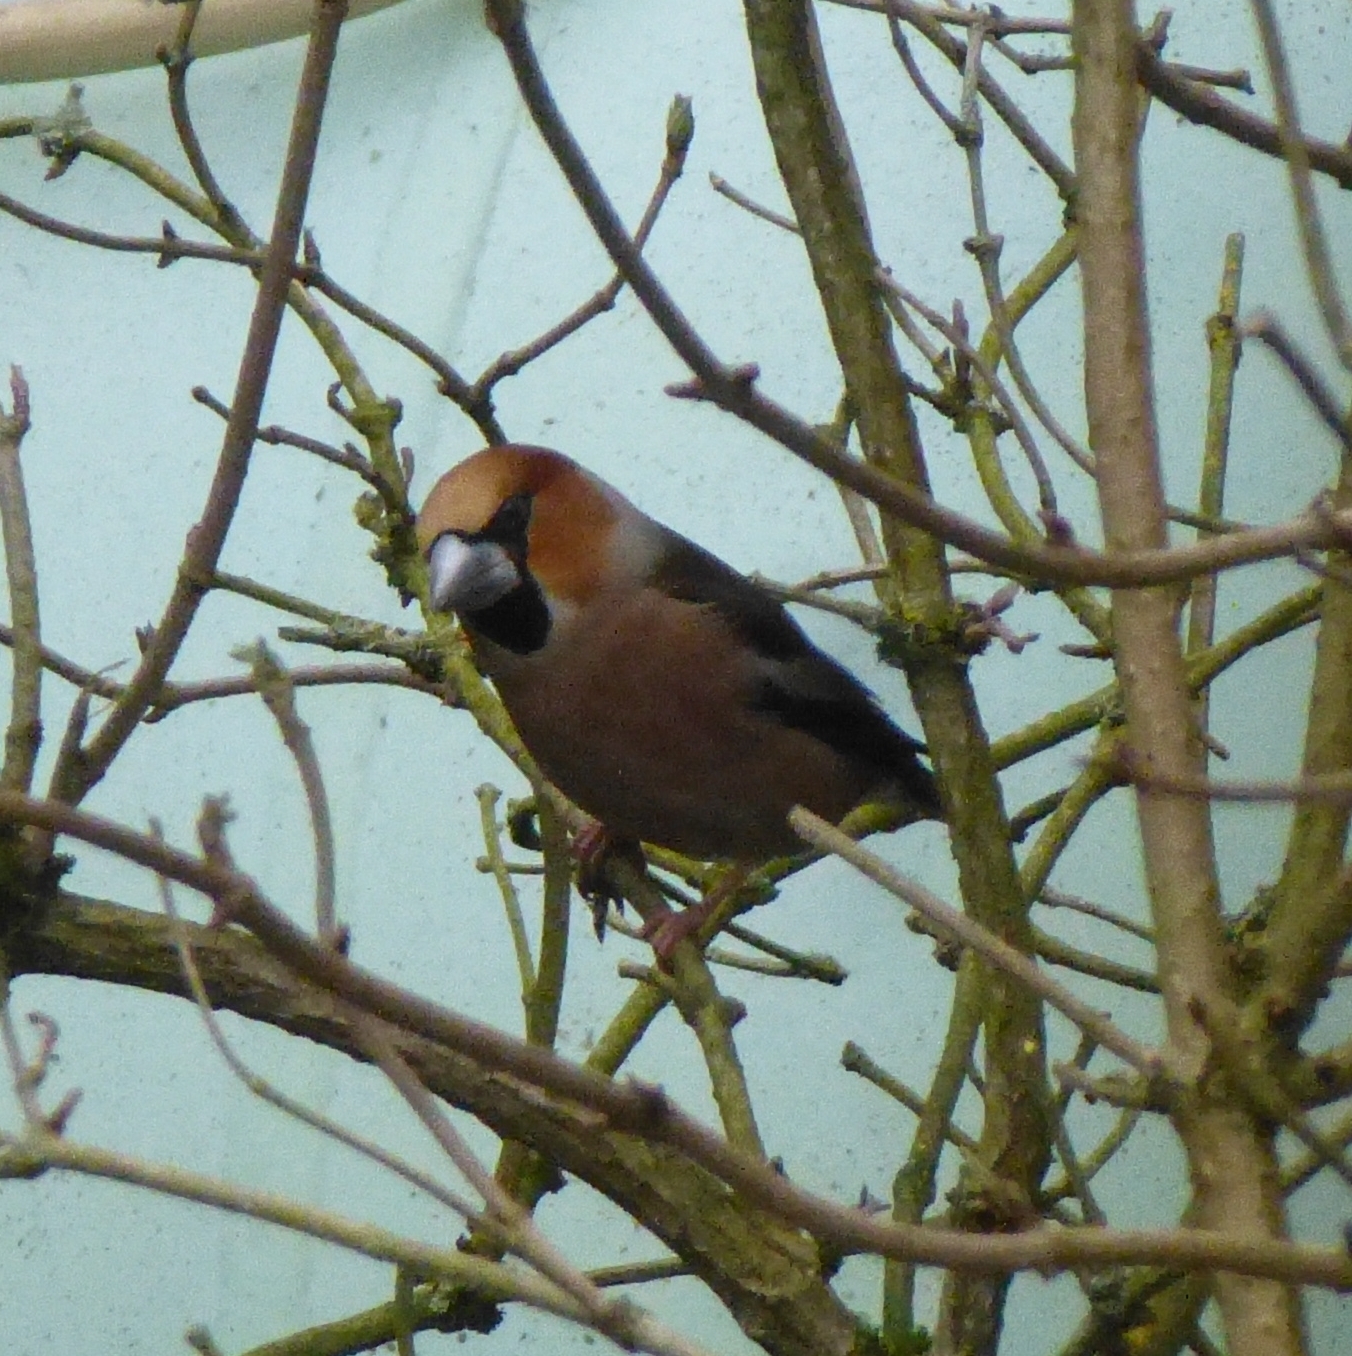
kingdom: Animalia
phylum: Chordata
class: Aves
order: Passeriformes
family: Fringillidae
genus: Coccothraustes
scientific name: Coccothraustes coccothraustes
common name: Hawfinch
